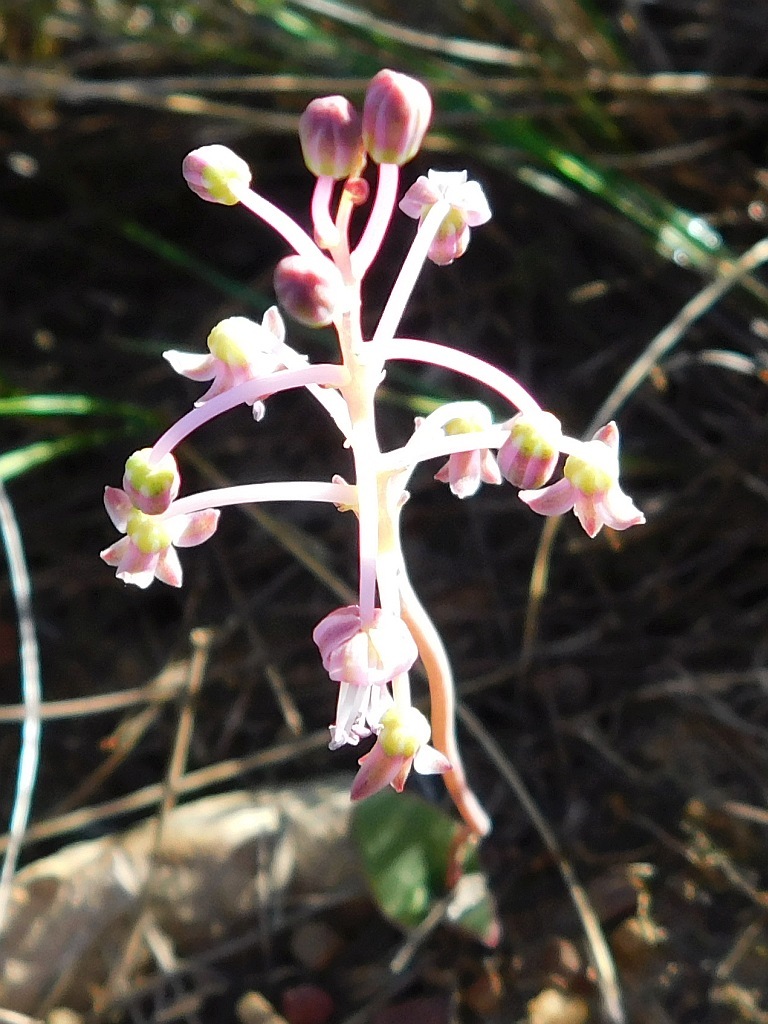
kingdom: Plantae
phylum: Tracheophyta
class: Liliopsida
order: Asparagales
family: Asparagaceae
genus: Ledebouria
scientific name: Ledebouria ovalifolia
